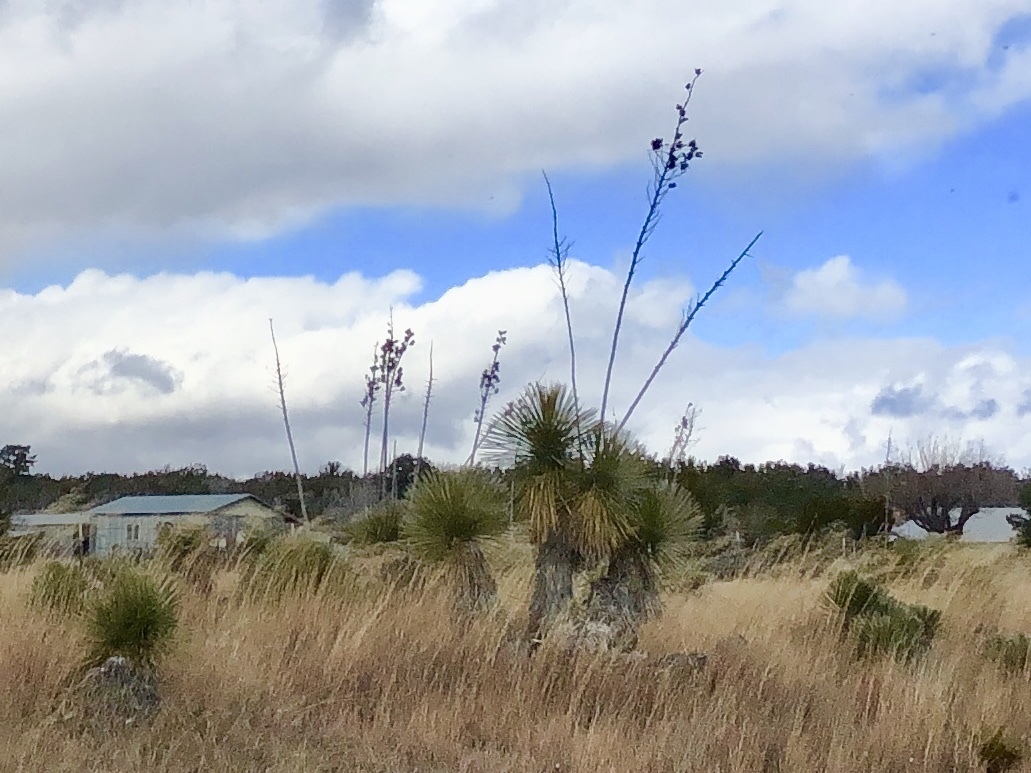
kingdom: Plantae
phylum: Tracheophyta
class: Liliopsida
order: Asparagales
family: Asparagaceae
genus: Yucca
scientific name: Yucca elata
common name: Palmella
